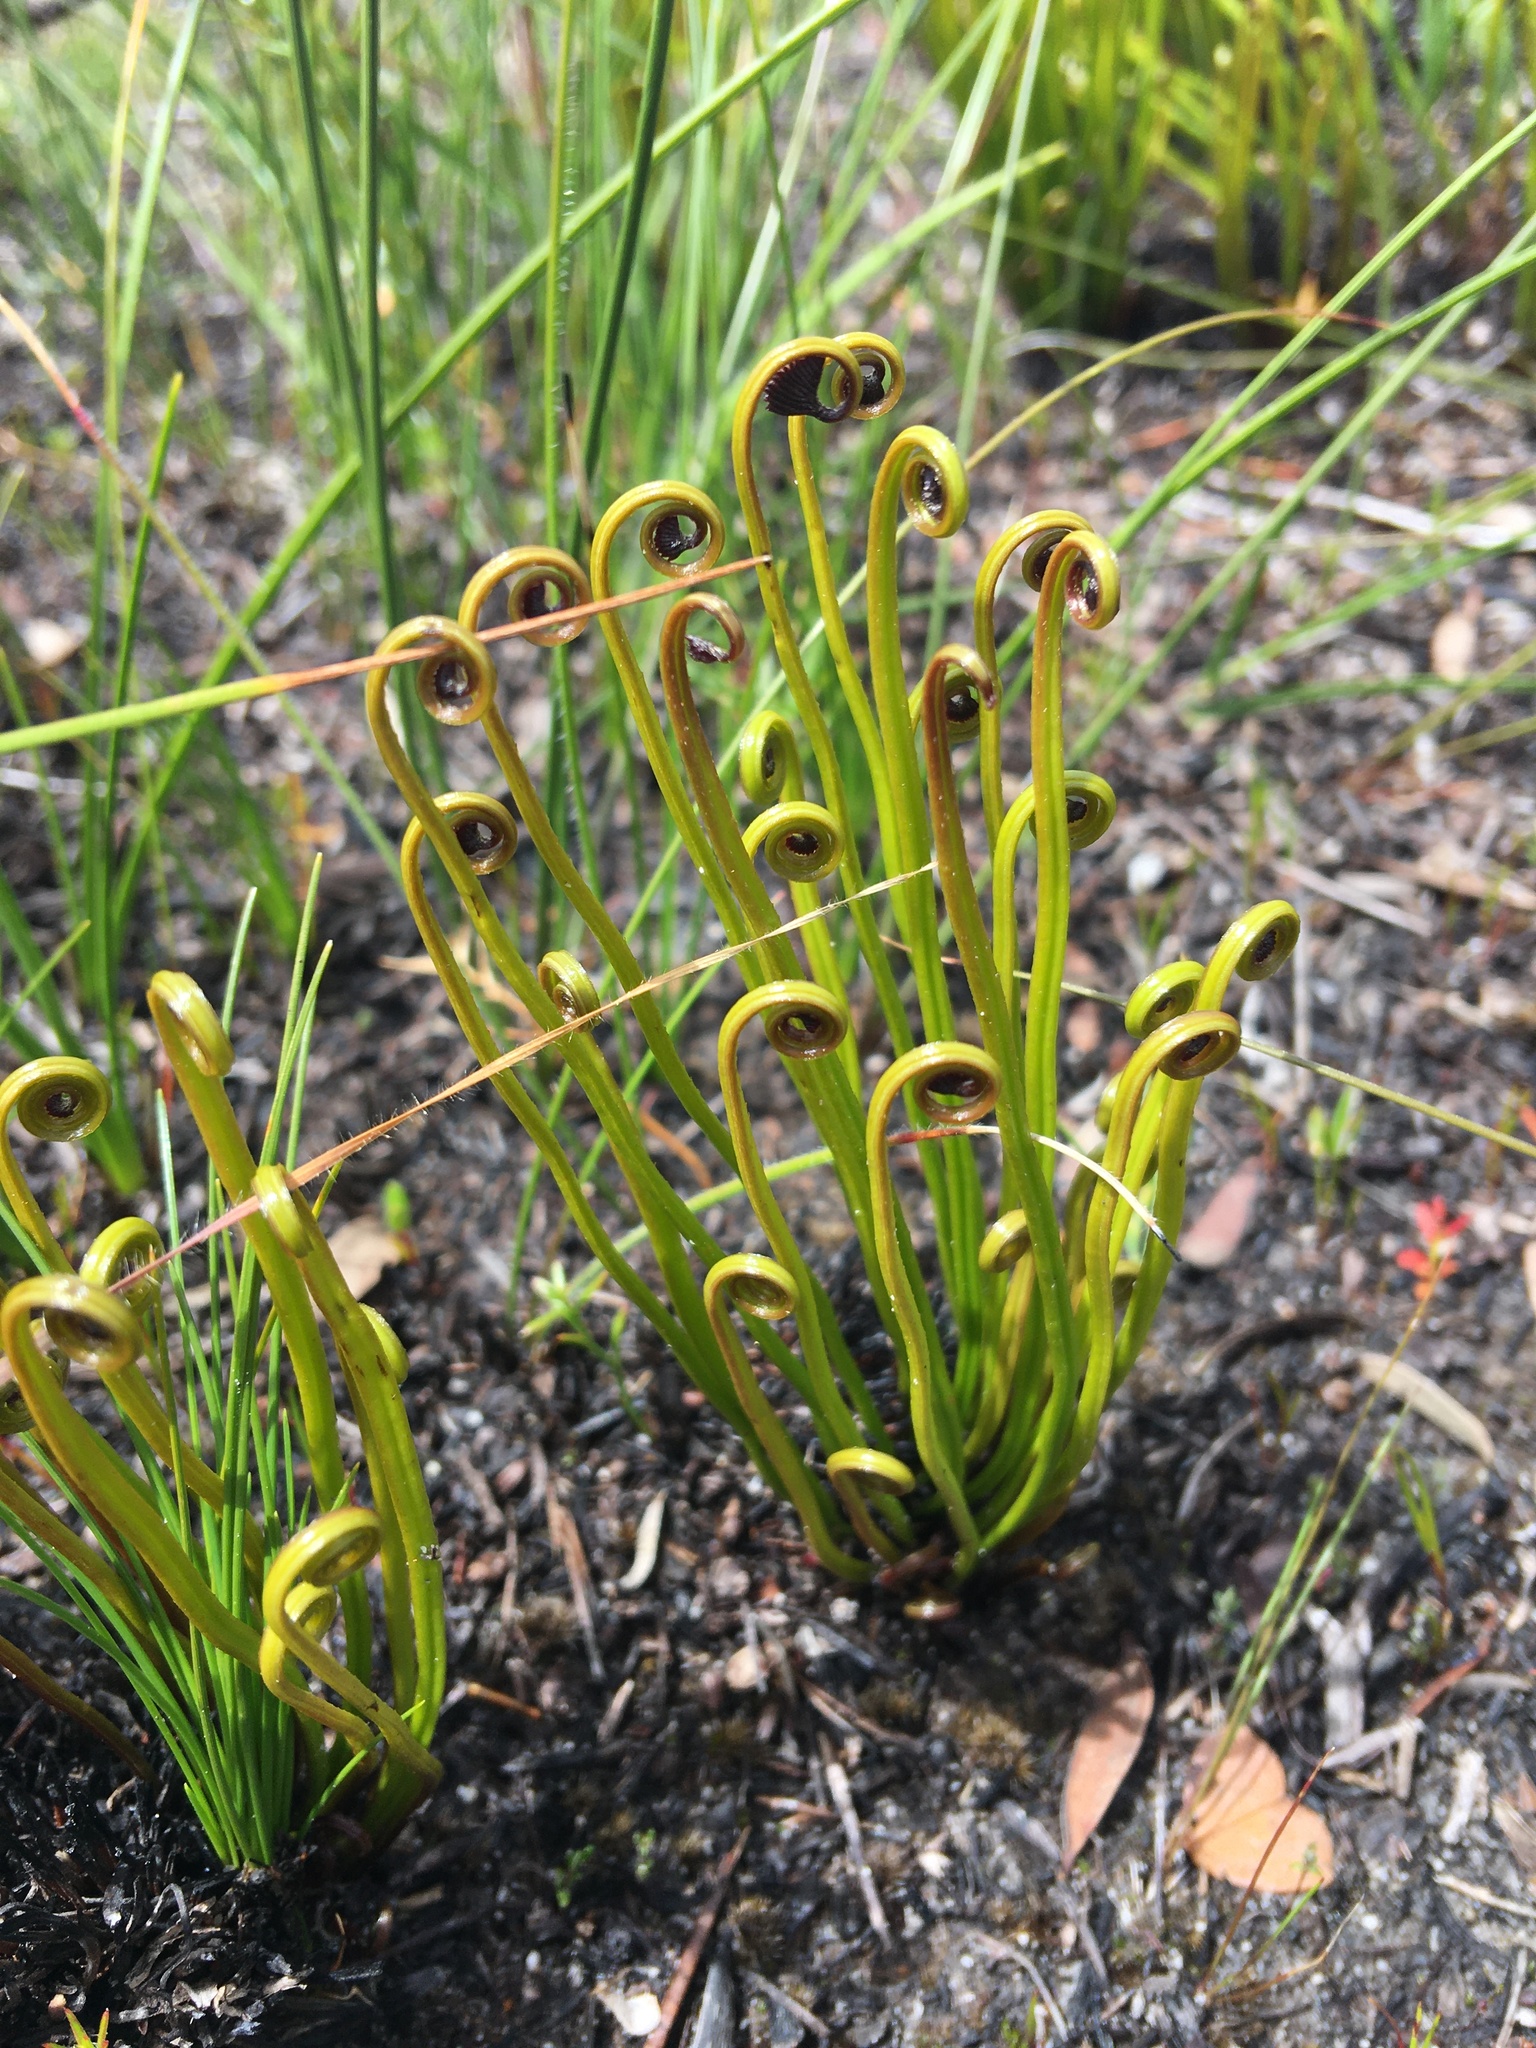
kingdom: Plantae
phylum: Tracheophyta
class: Polypodiopsida
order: Schizaeales
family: Schizaeaceae
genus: Schizaea
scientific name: Schizaea pectinata
